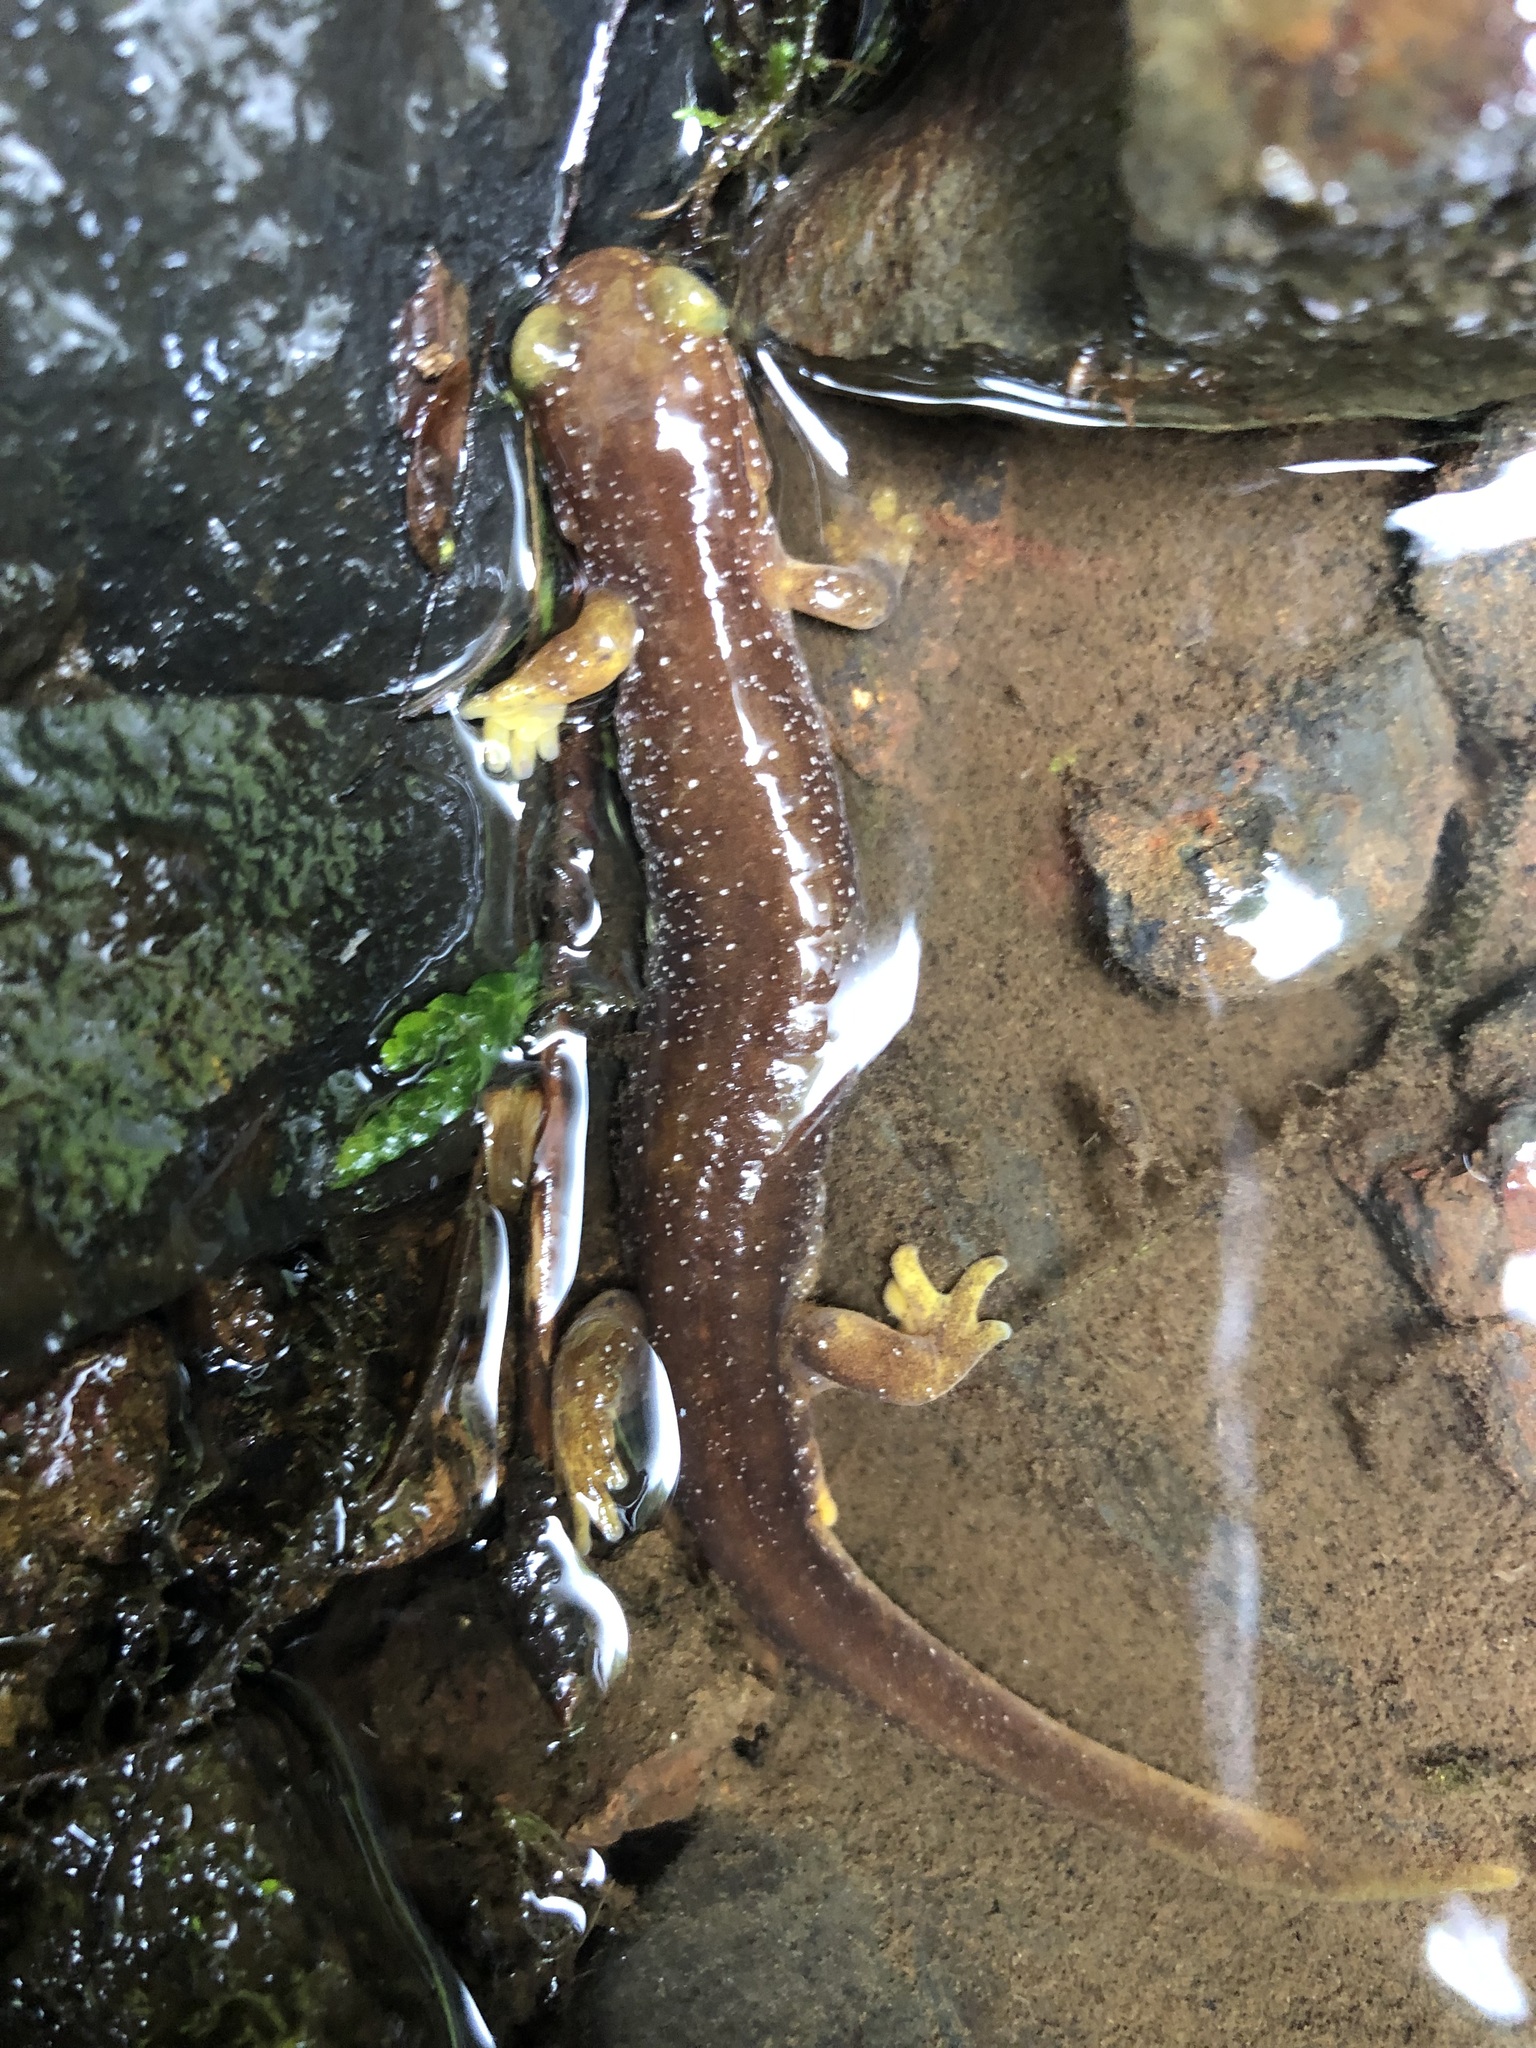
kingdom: Animalia
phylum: Chordata
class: Amphibia
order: Caudata
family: Rhyacotritonidae
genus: Rhyacotriton
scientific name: Rhyacotriton kezeri
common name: Columbia torrent salamander
